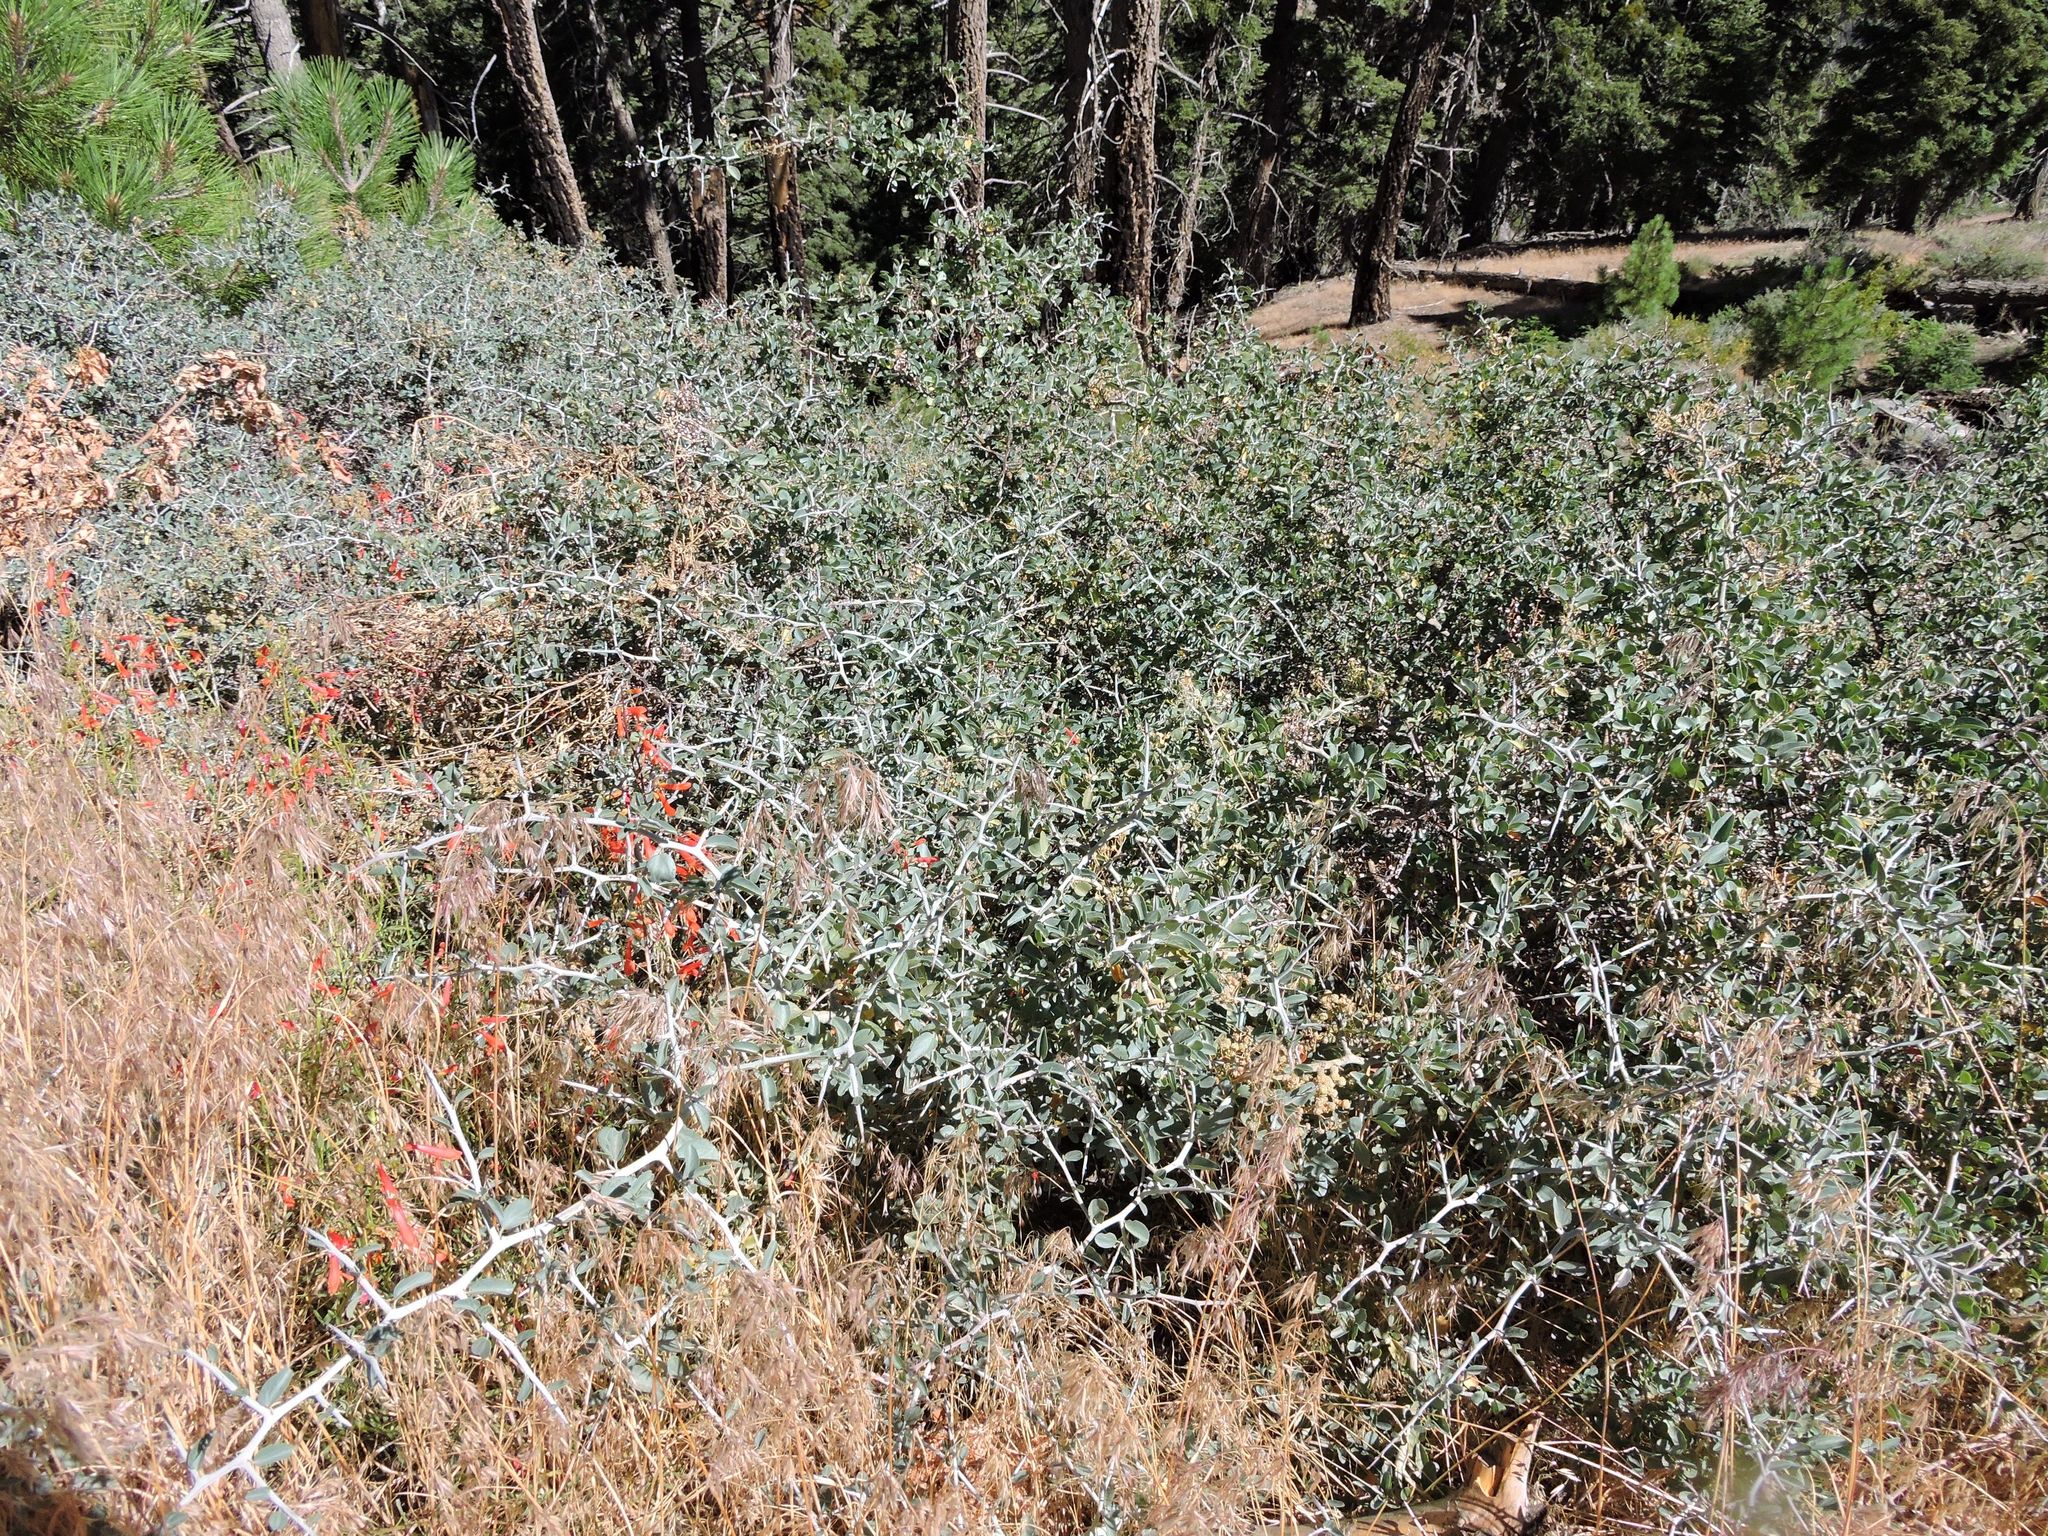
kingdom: Plantae
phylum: Tracheophyta
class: Magnoliopsida
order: Rosales
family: Rhamnaceae
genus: Ceanothus
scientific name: Ceanothus cordulatus
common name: Mountain whitethorn
